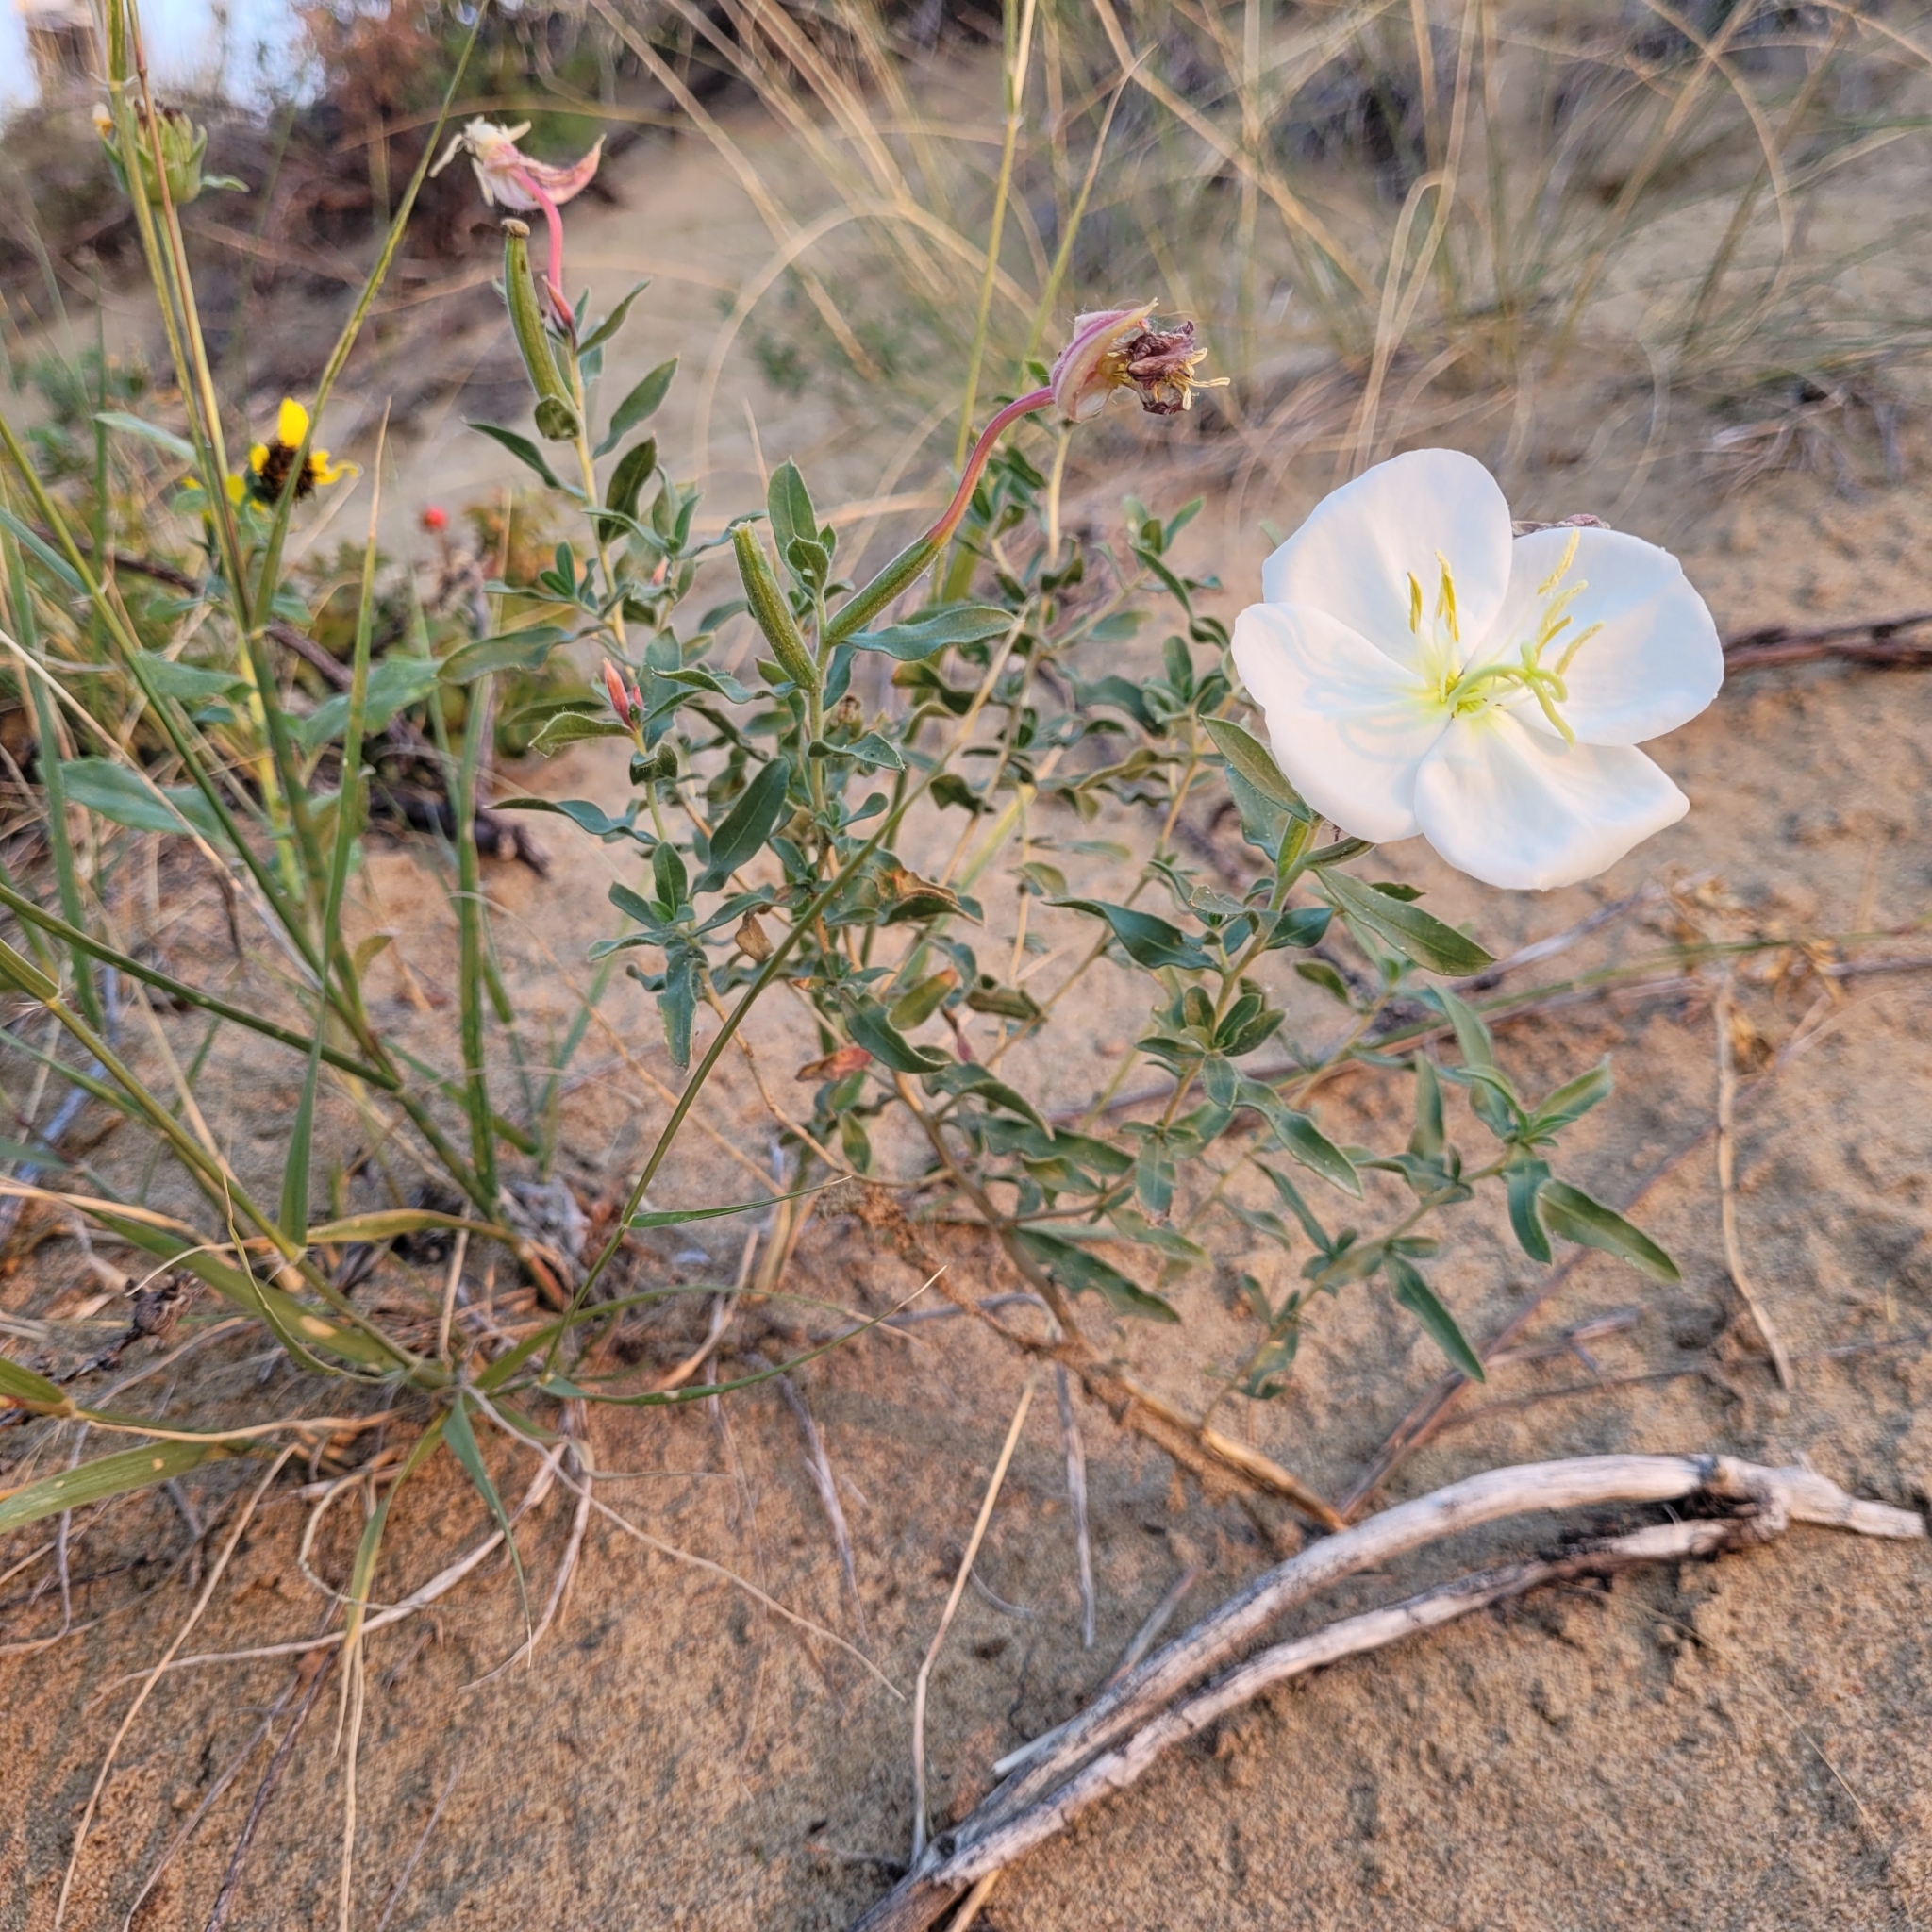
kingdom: Plantae
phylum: Tracheophyta
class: Magnoliopsida
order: Myrtales
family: Onagraceae
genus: Oenothera
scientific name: Oenothera nuttallii
